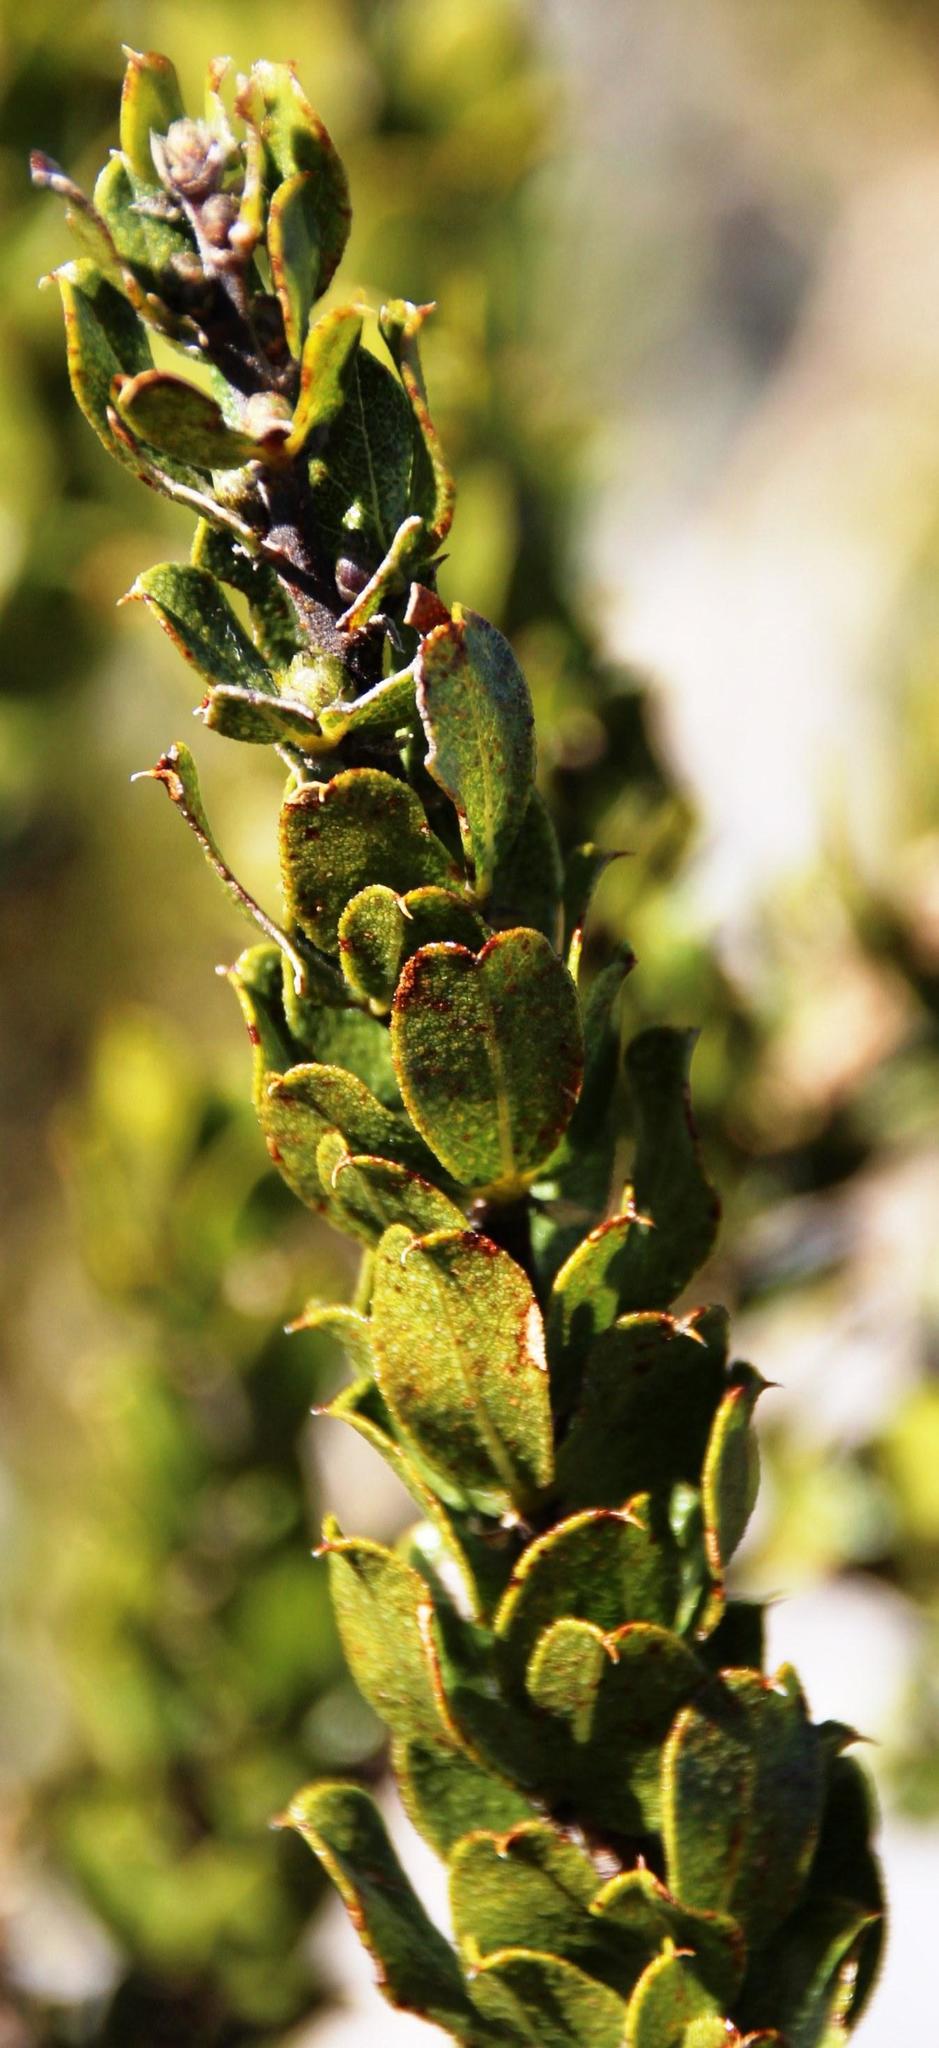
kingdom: Plantae
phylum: Tracheophyta
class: Magnoliopsida
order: Fabales
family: Fabaceae
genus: Psoralea
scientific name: Psoralea mundiana
